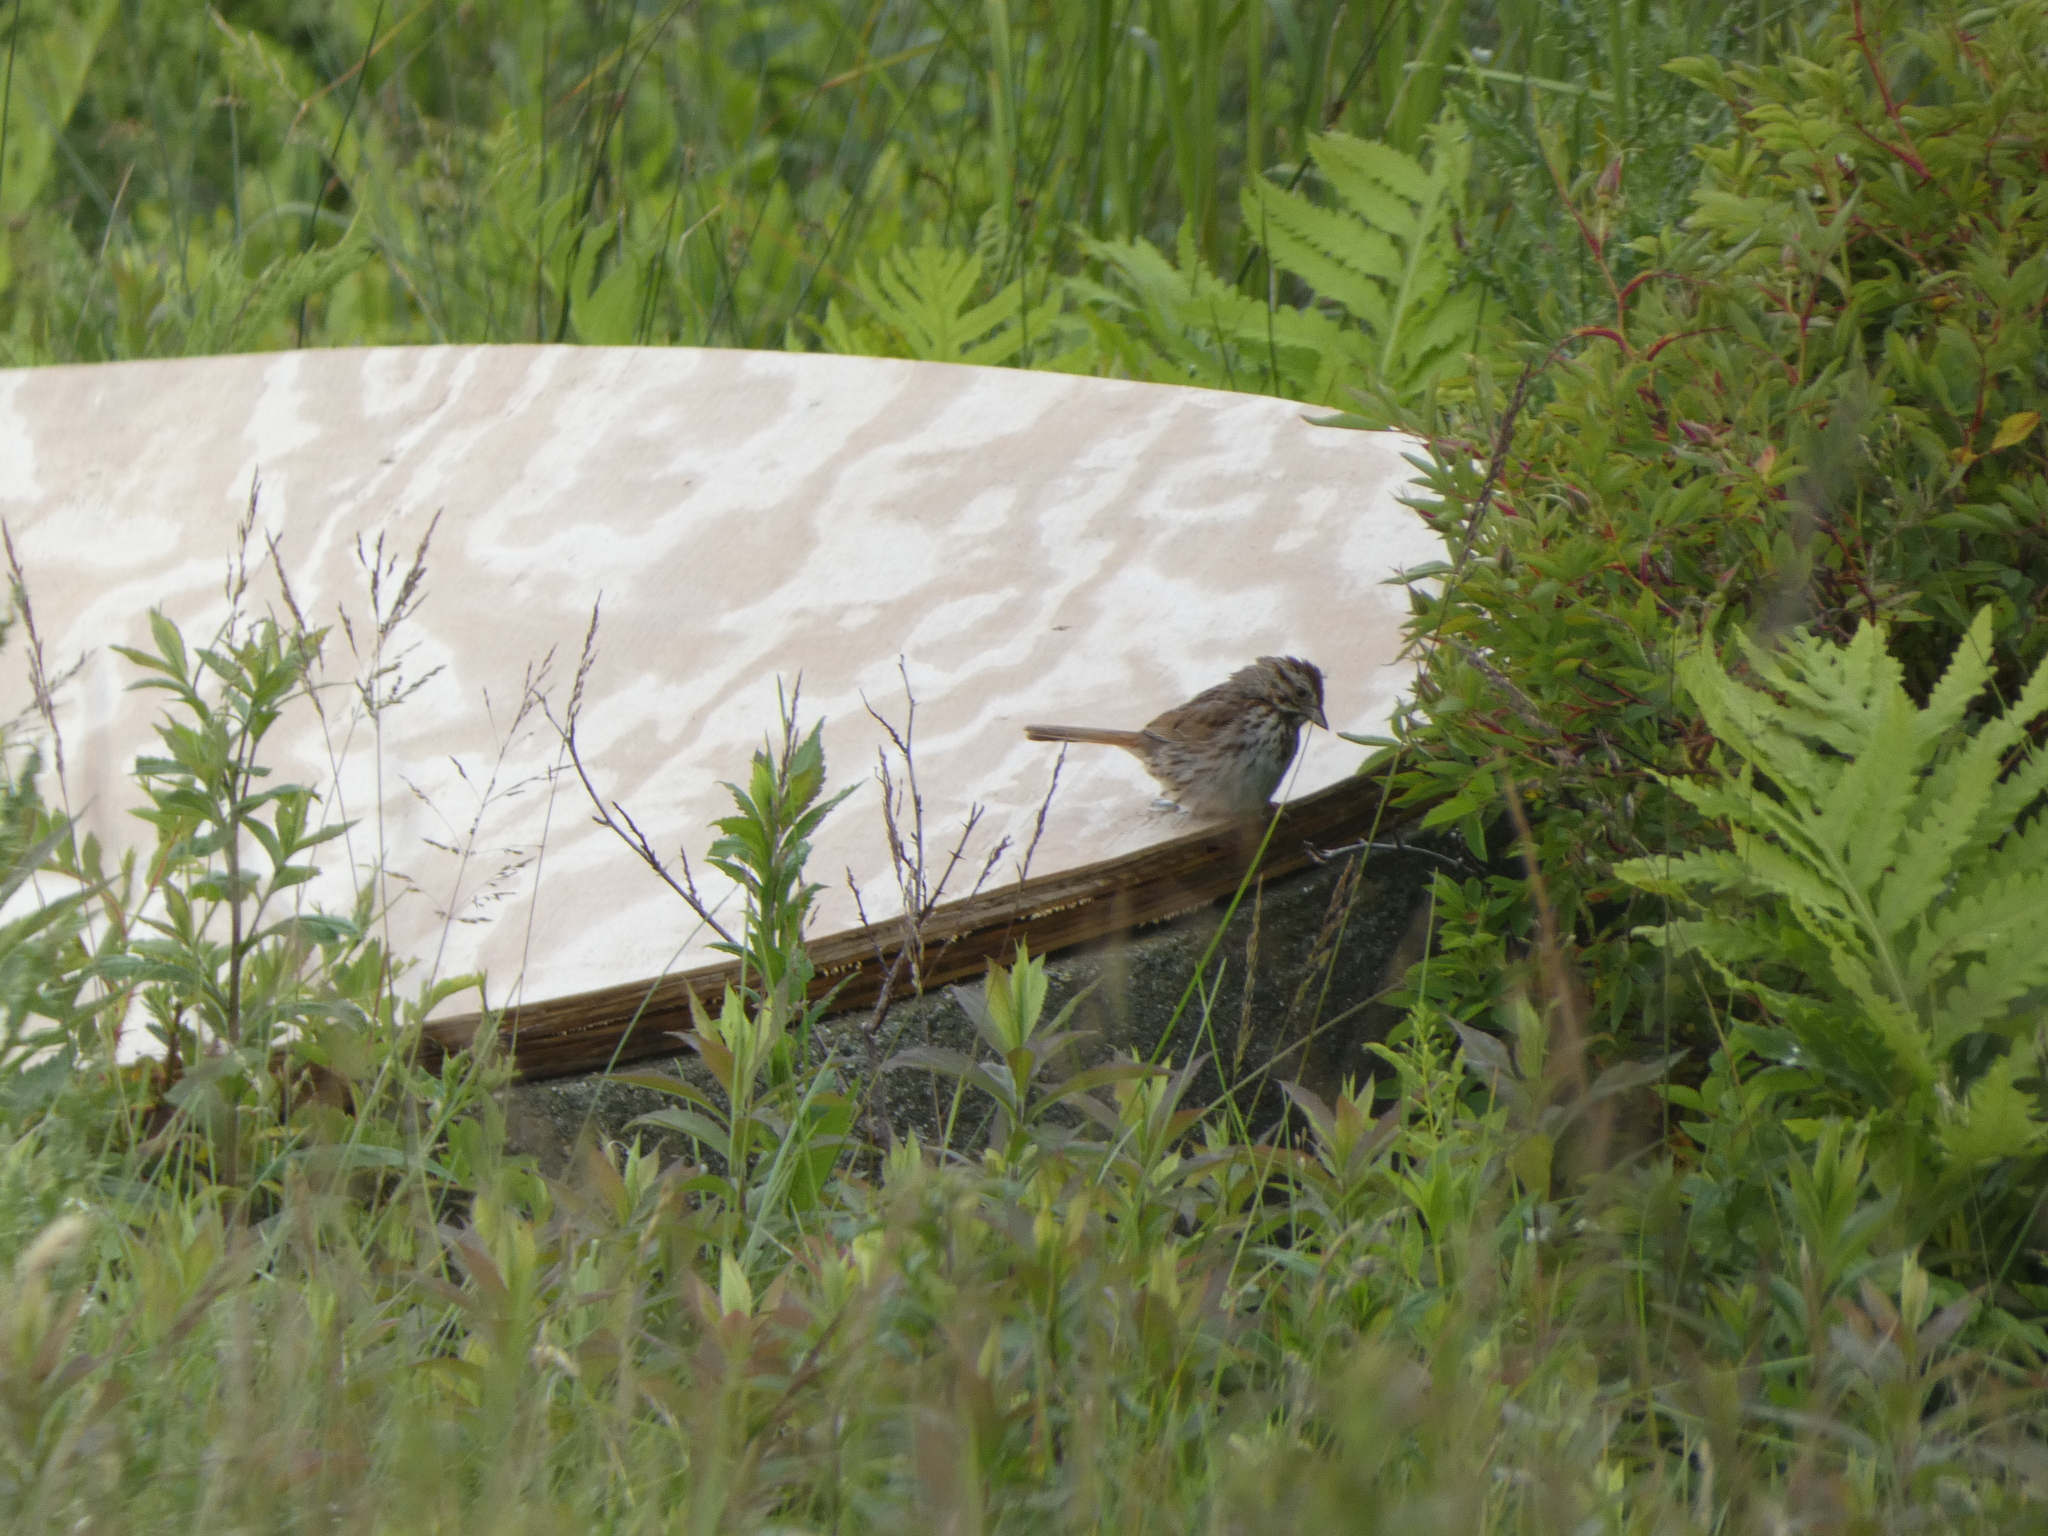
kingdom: Animalia
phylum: Chordata
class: Aves
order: Passeriformes
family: Passerellidae
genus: Melospiza
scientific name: Melospiza melodia
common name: Song sparrow
